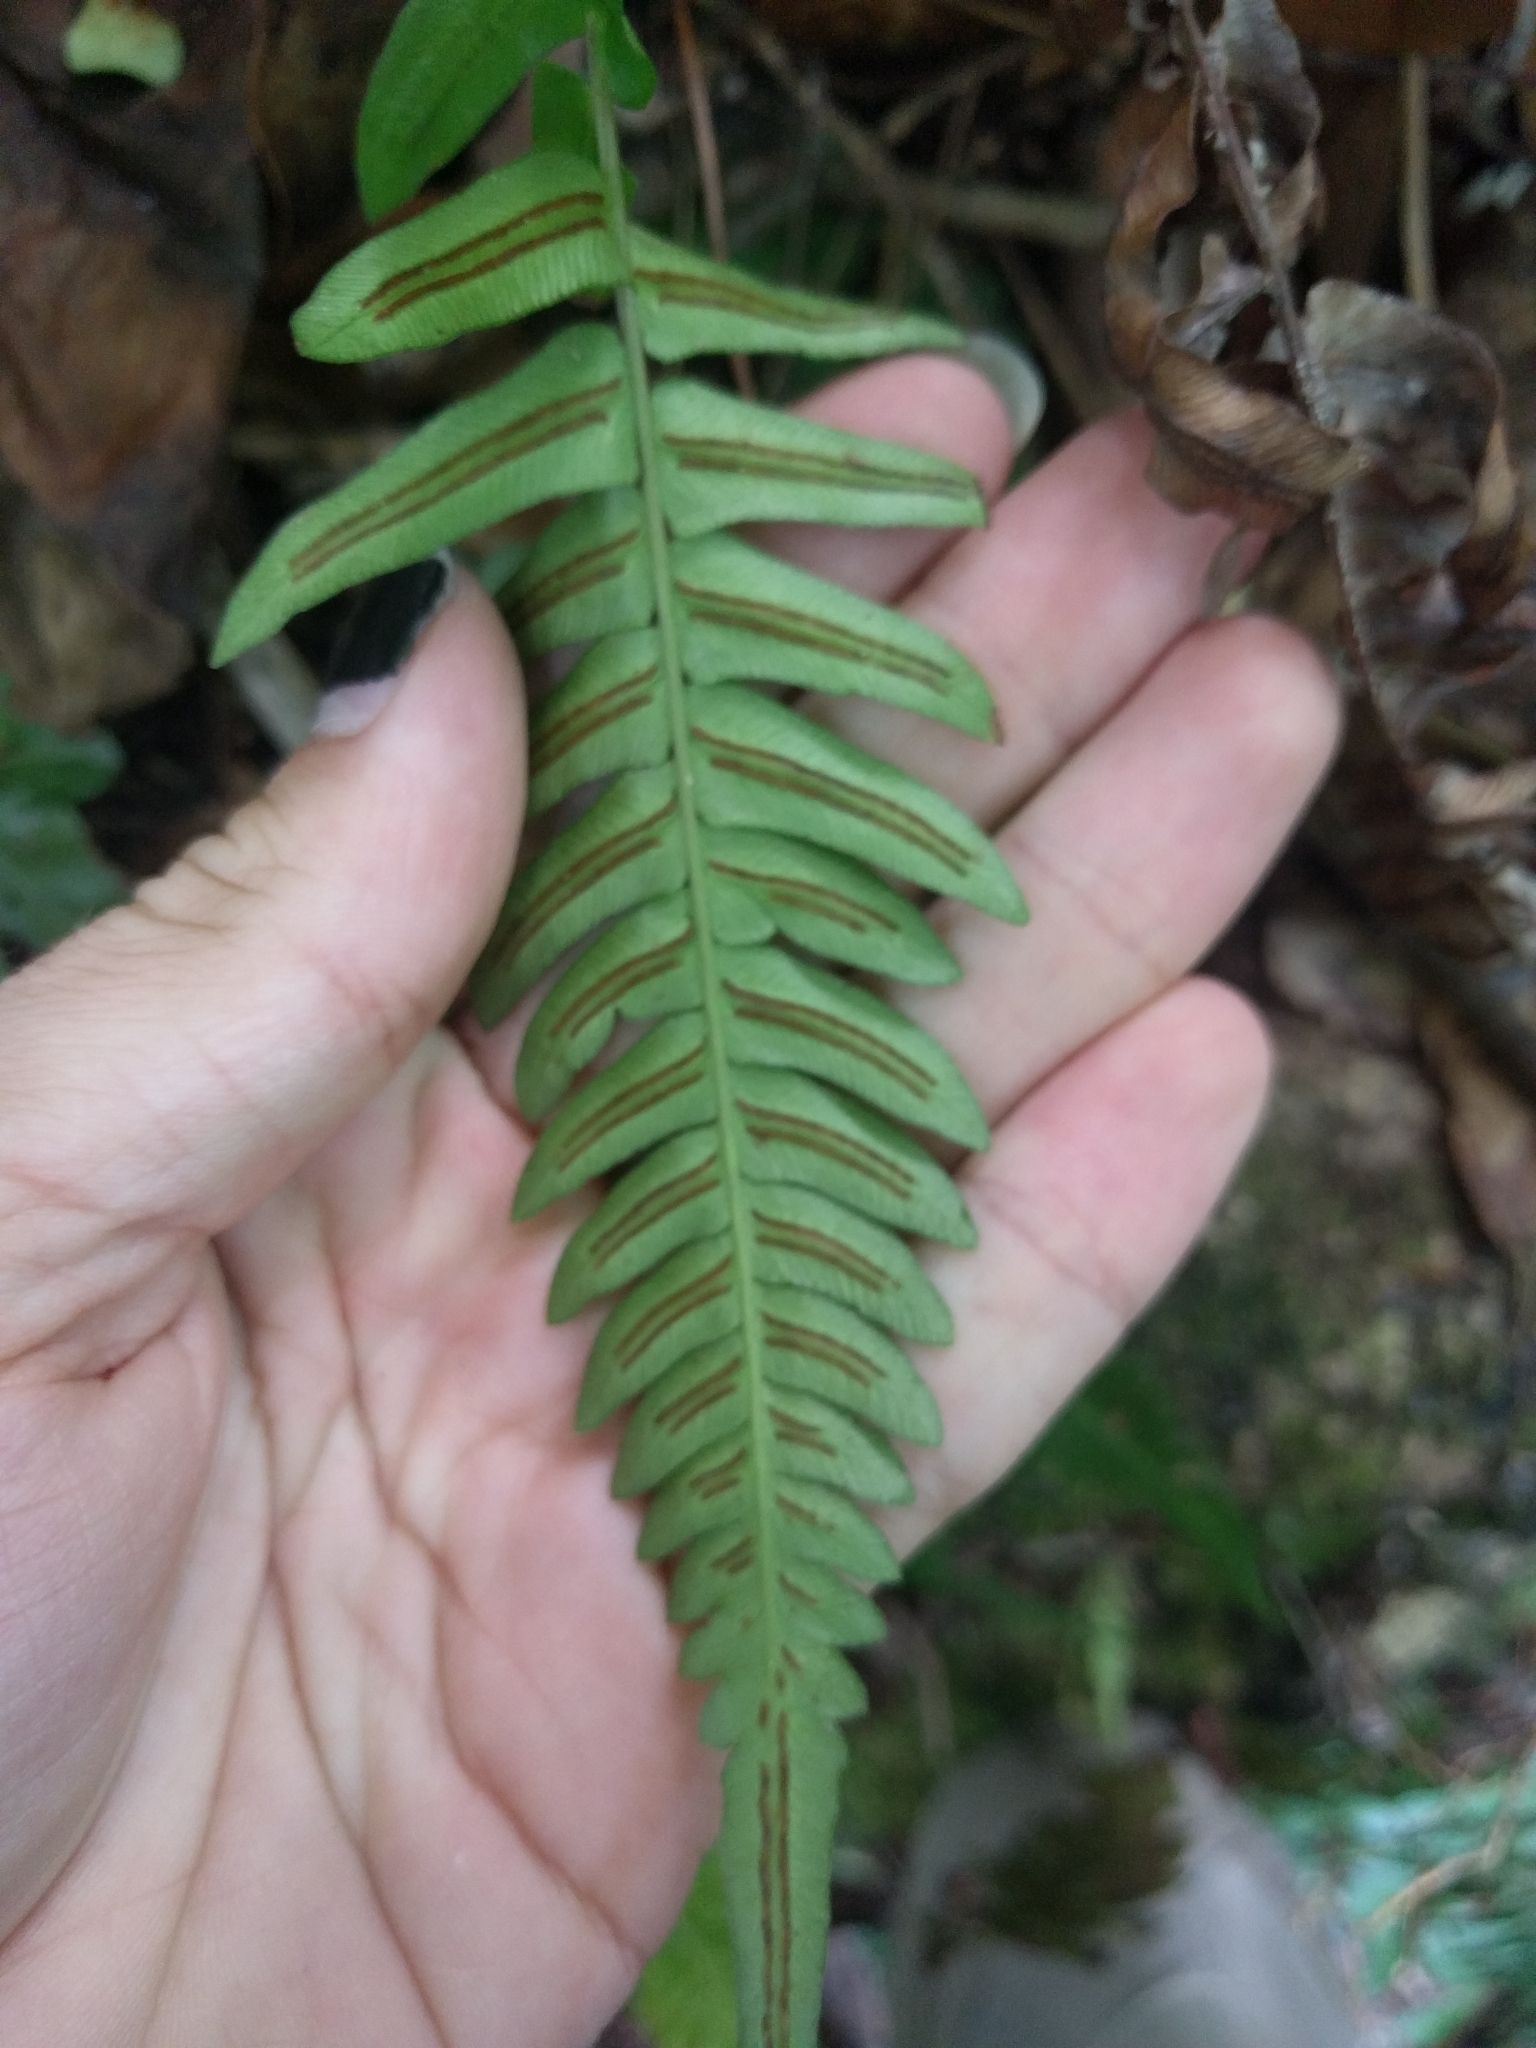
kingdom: Plantae
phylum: Tracheophyta
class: Polypodiopsida
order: Polypodiales
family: Blechnaceae
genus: Blechnum
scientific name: Blechnum appendiculatum
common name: Palm fern
